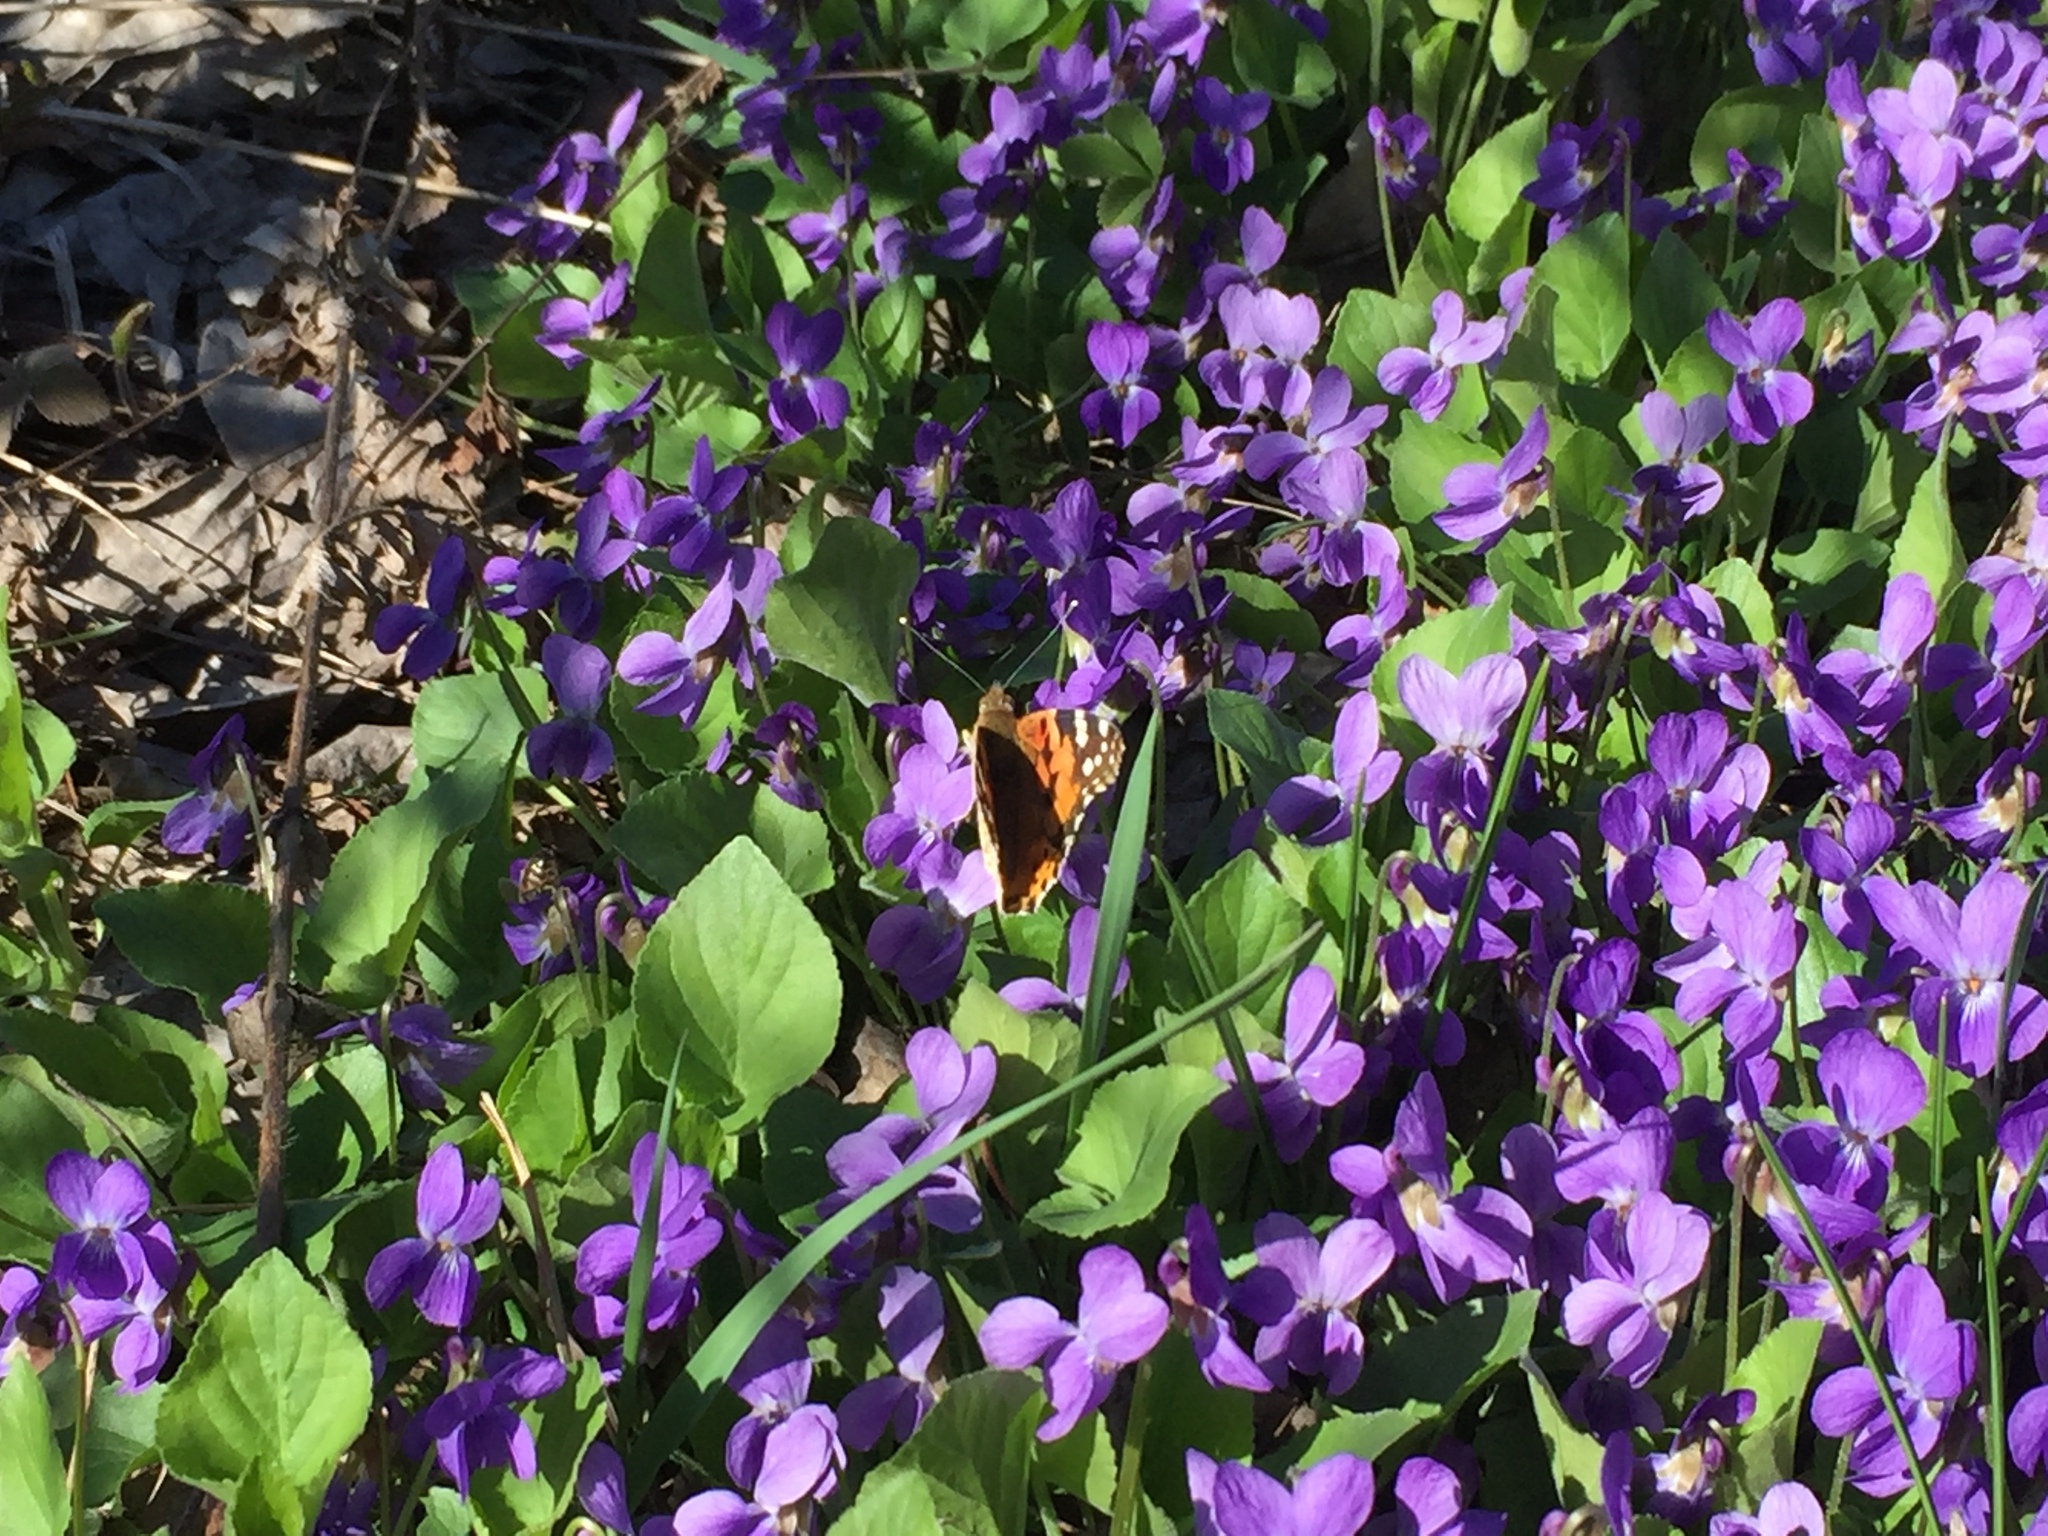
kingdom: Plantae
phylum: Tracheophyta
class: Magnoliopsida
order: Malpighiales
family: Violaceae
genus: Viola
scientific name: Viola hirta
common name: Hairy violet
